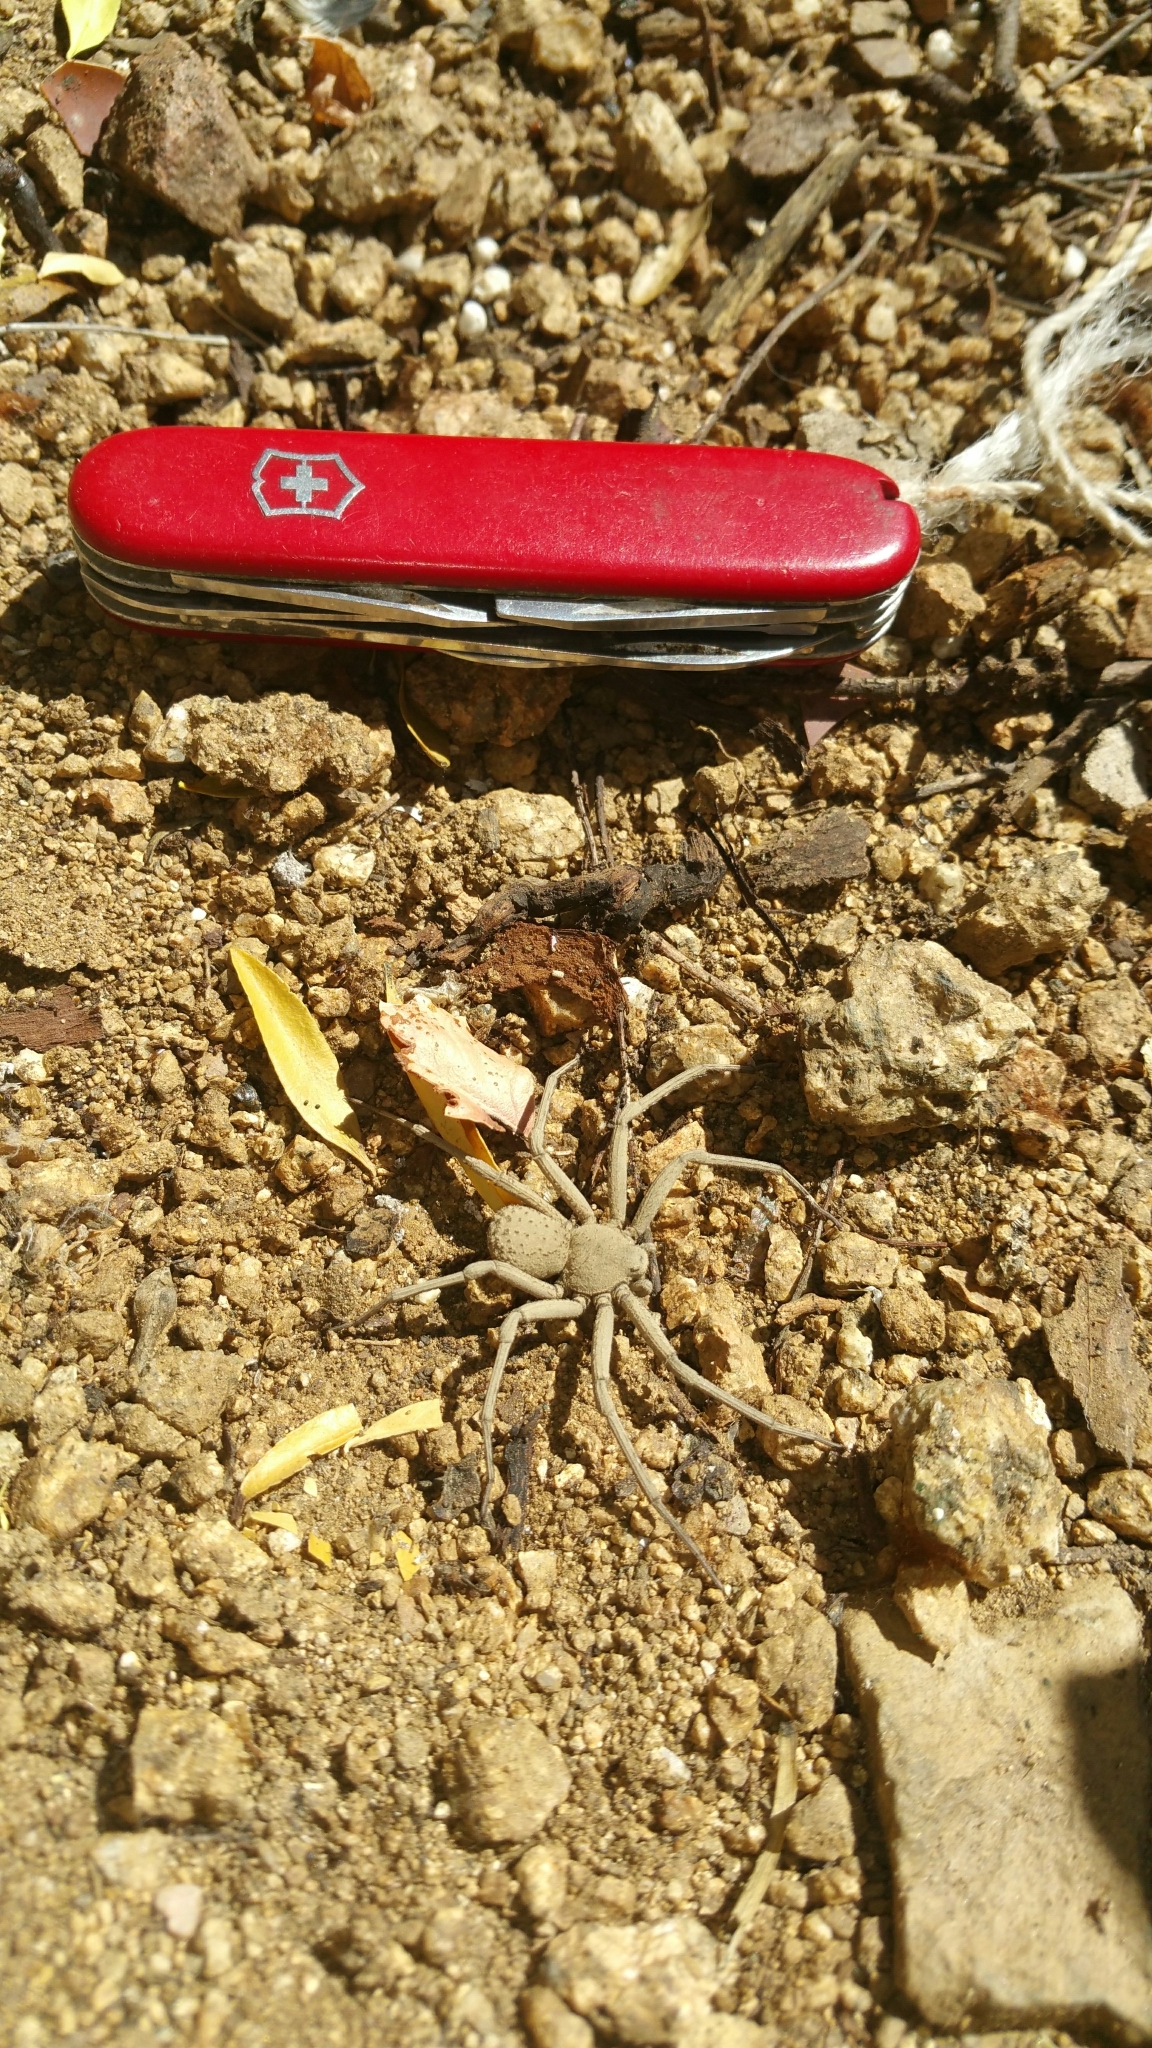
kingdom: Animalia
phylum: Arthropoda
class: Arachnida
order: Araneae
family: Sicariidae
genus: Sicarius
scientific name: Sicarius thomisoides
